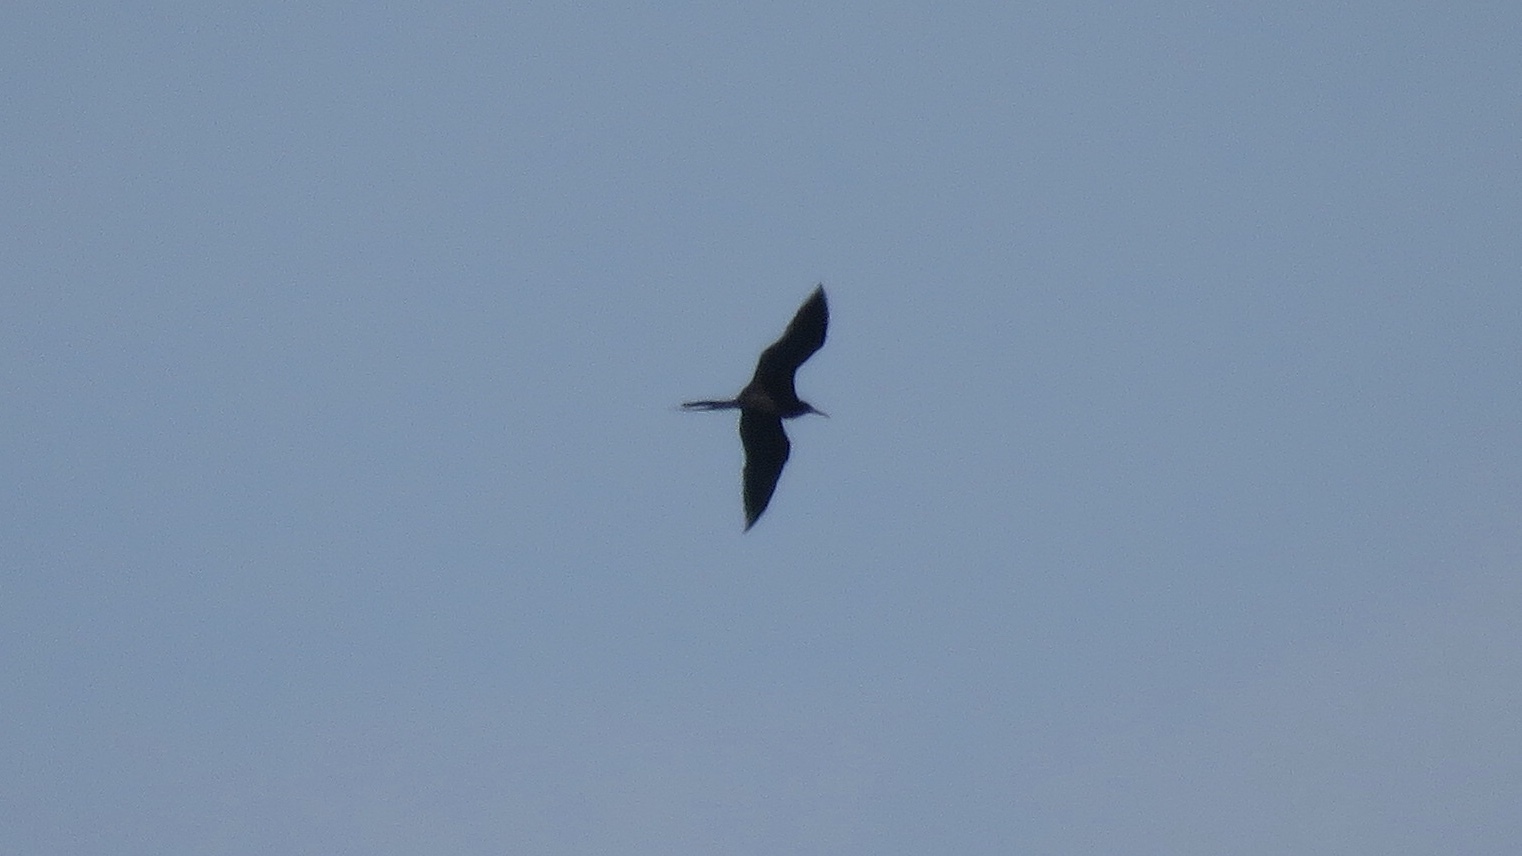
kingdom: Animalia
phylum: Chordata
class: Aves
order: Suliformes
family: Fregatidae
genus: Fregata
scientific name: Fregata magnificens
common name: Magnificent frigatebird
